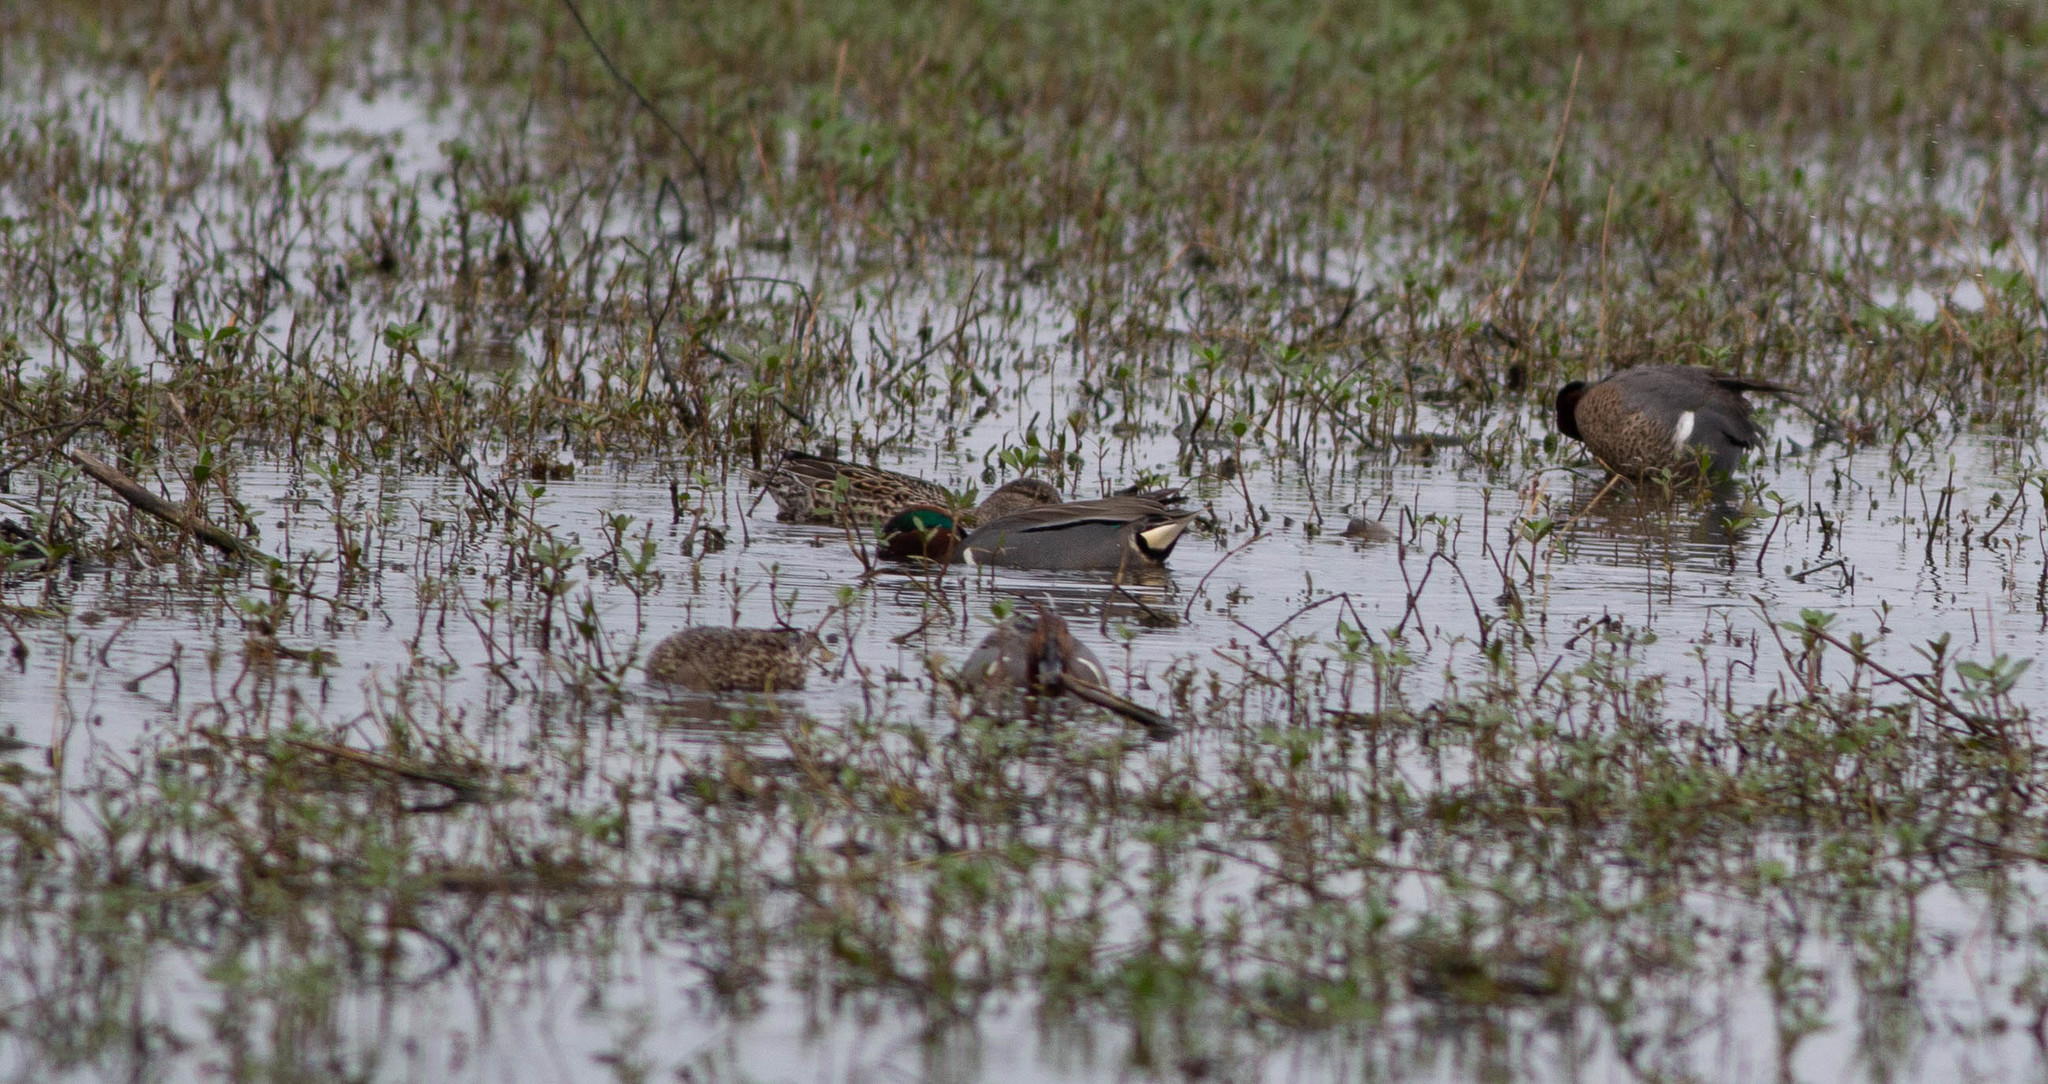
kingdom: Animalia
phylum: Chordata
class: Aves
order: Anseriformes
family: Anatidae
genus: Anas
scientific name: Anas crecca
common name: Eurasian teal
